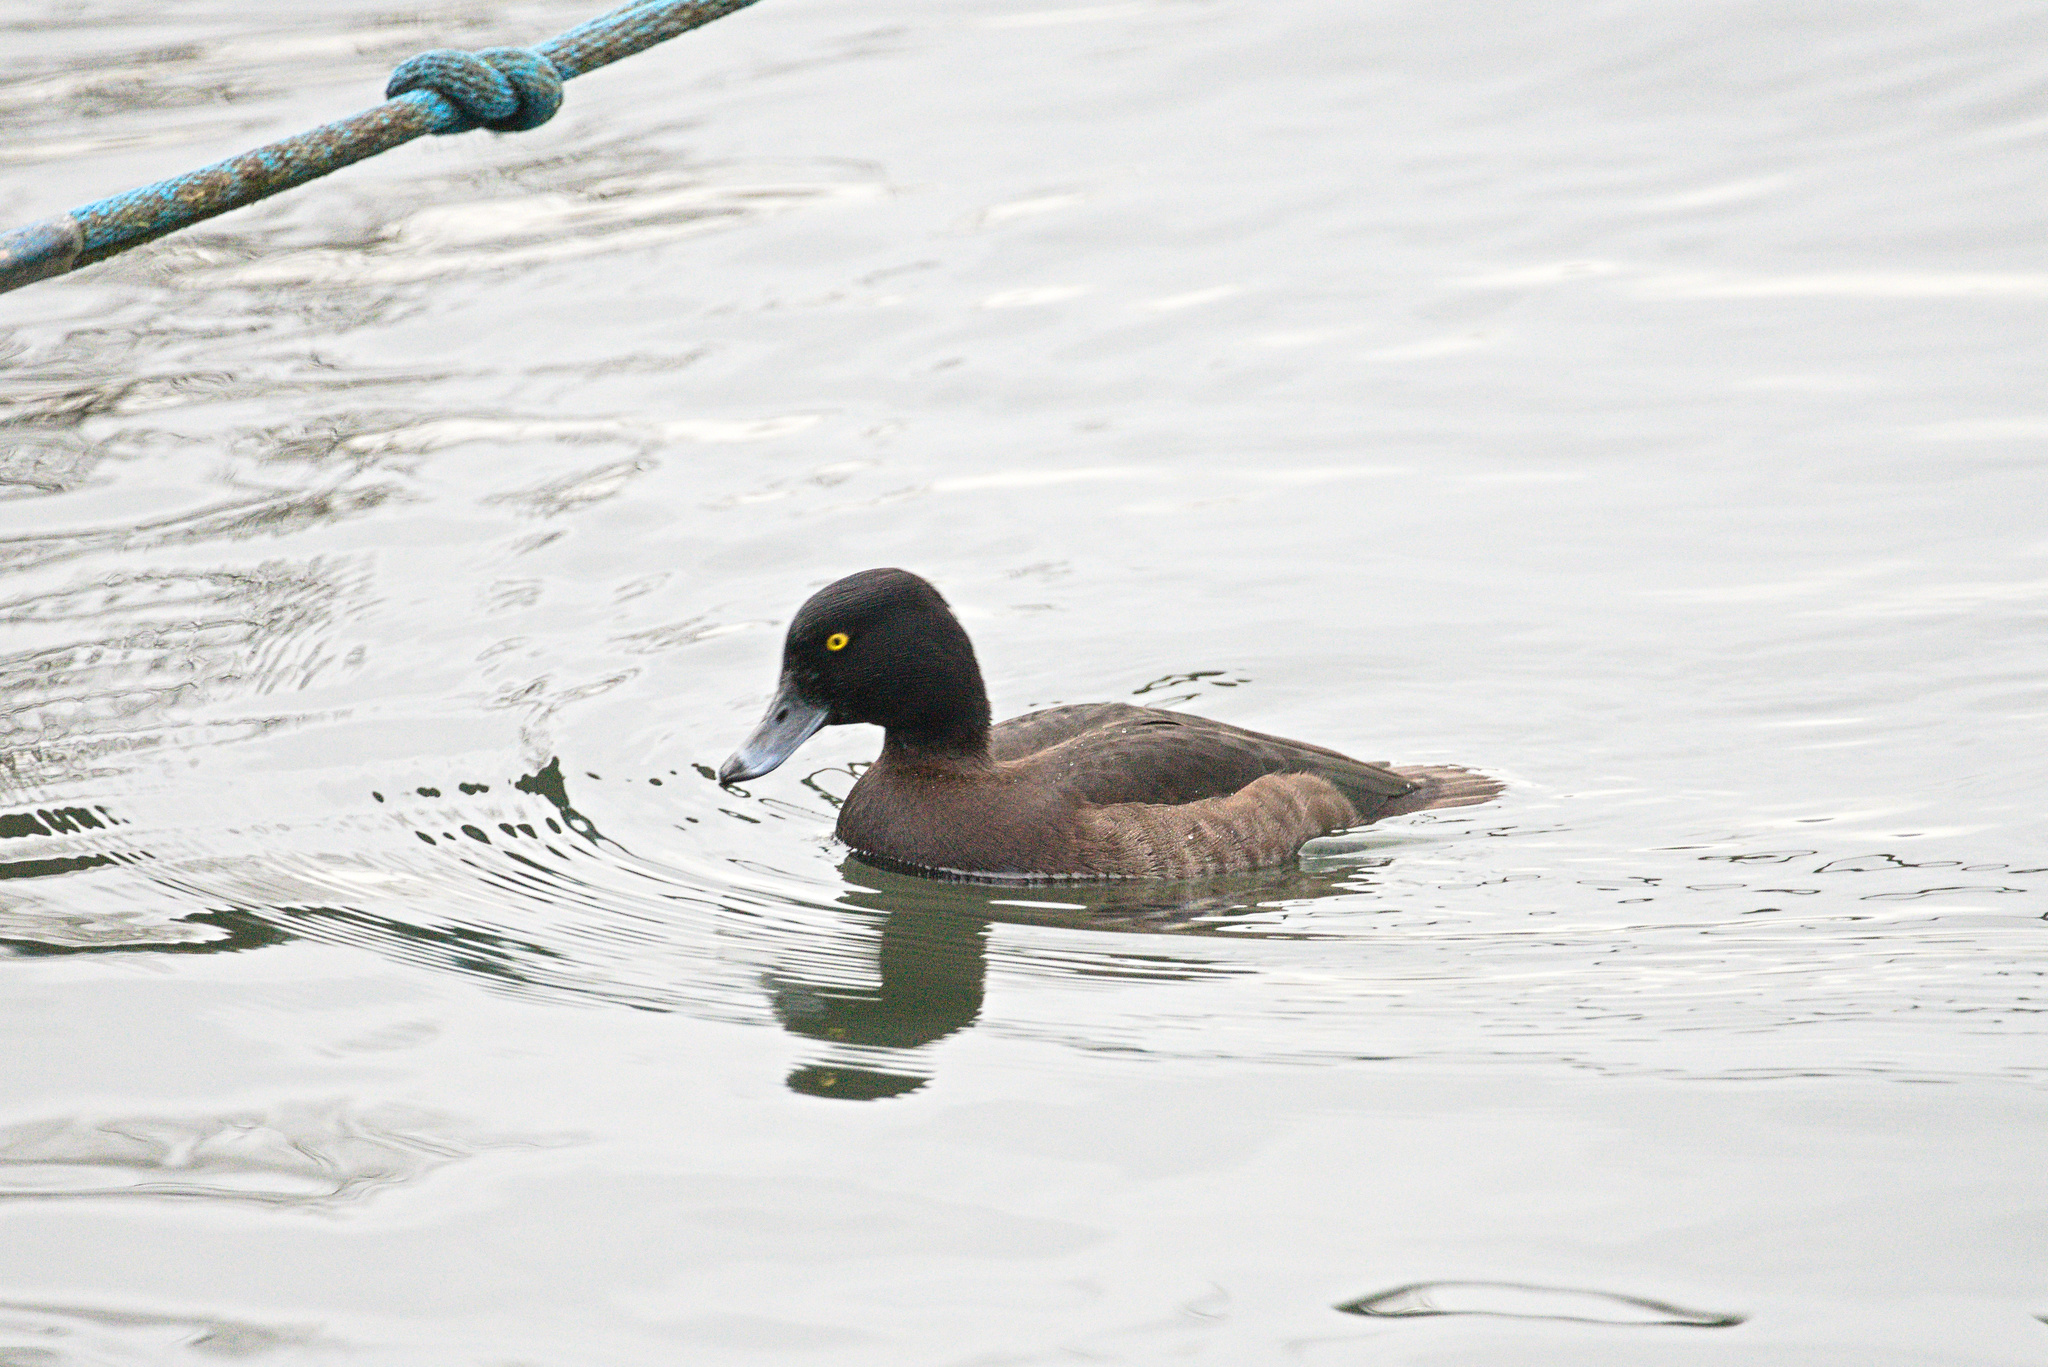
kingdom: Animalia
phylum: Chordata
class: Aves
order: Anseriformes
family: Anatidae
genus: Aythya
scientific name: Aythya fuligula
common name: Tufted duck
